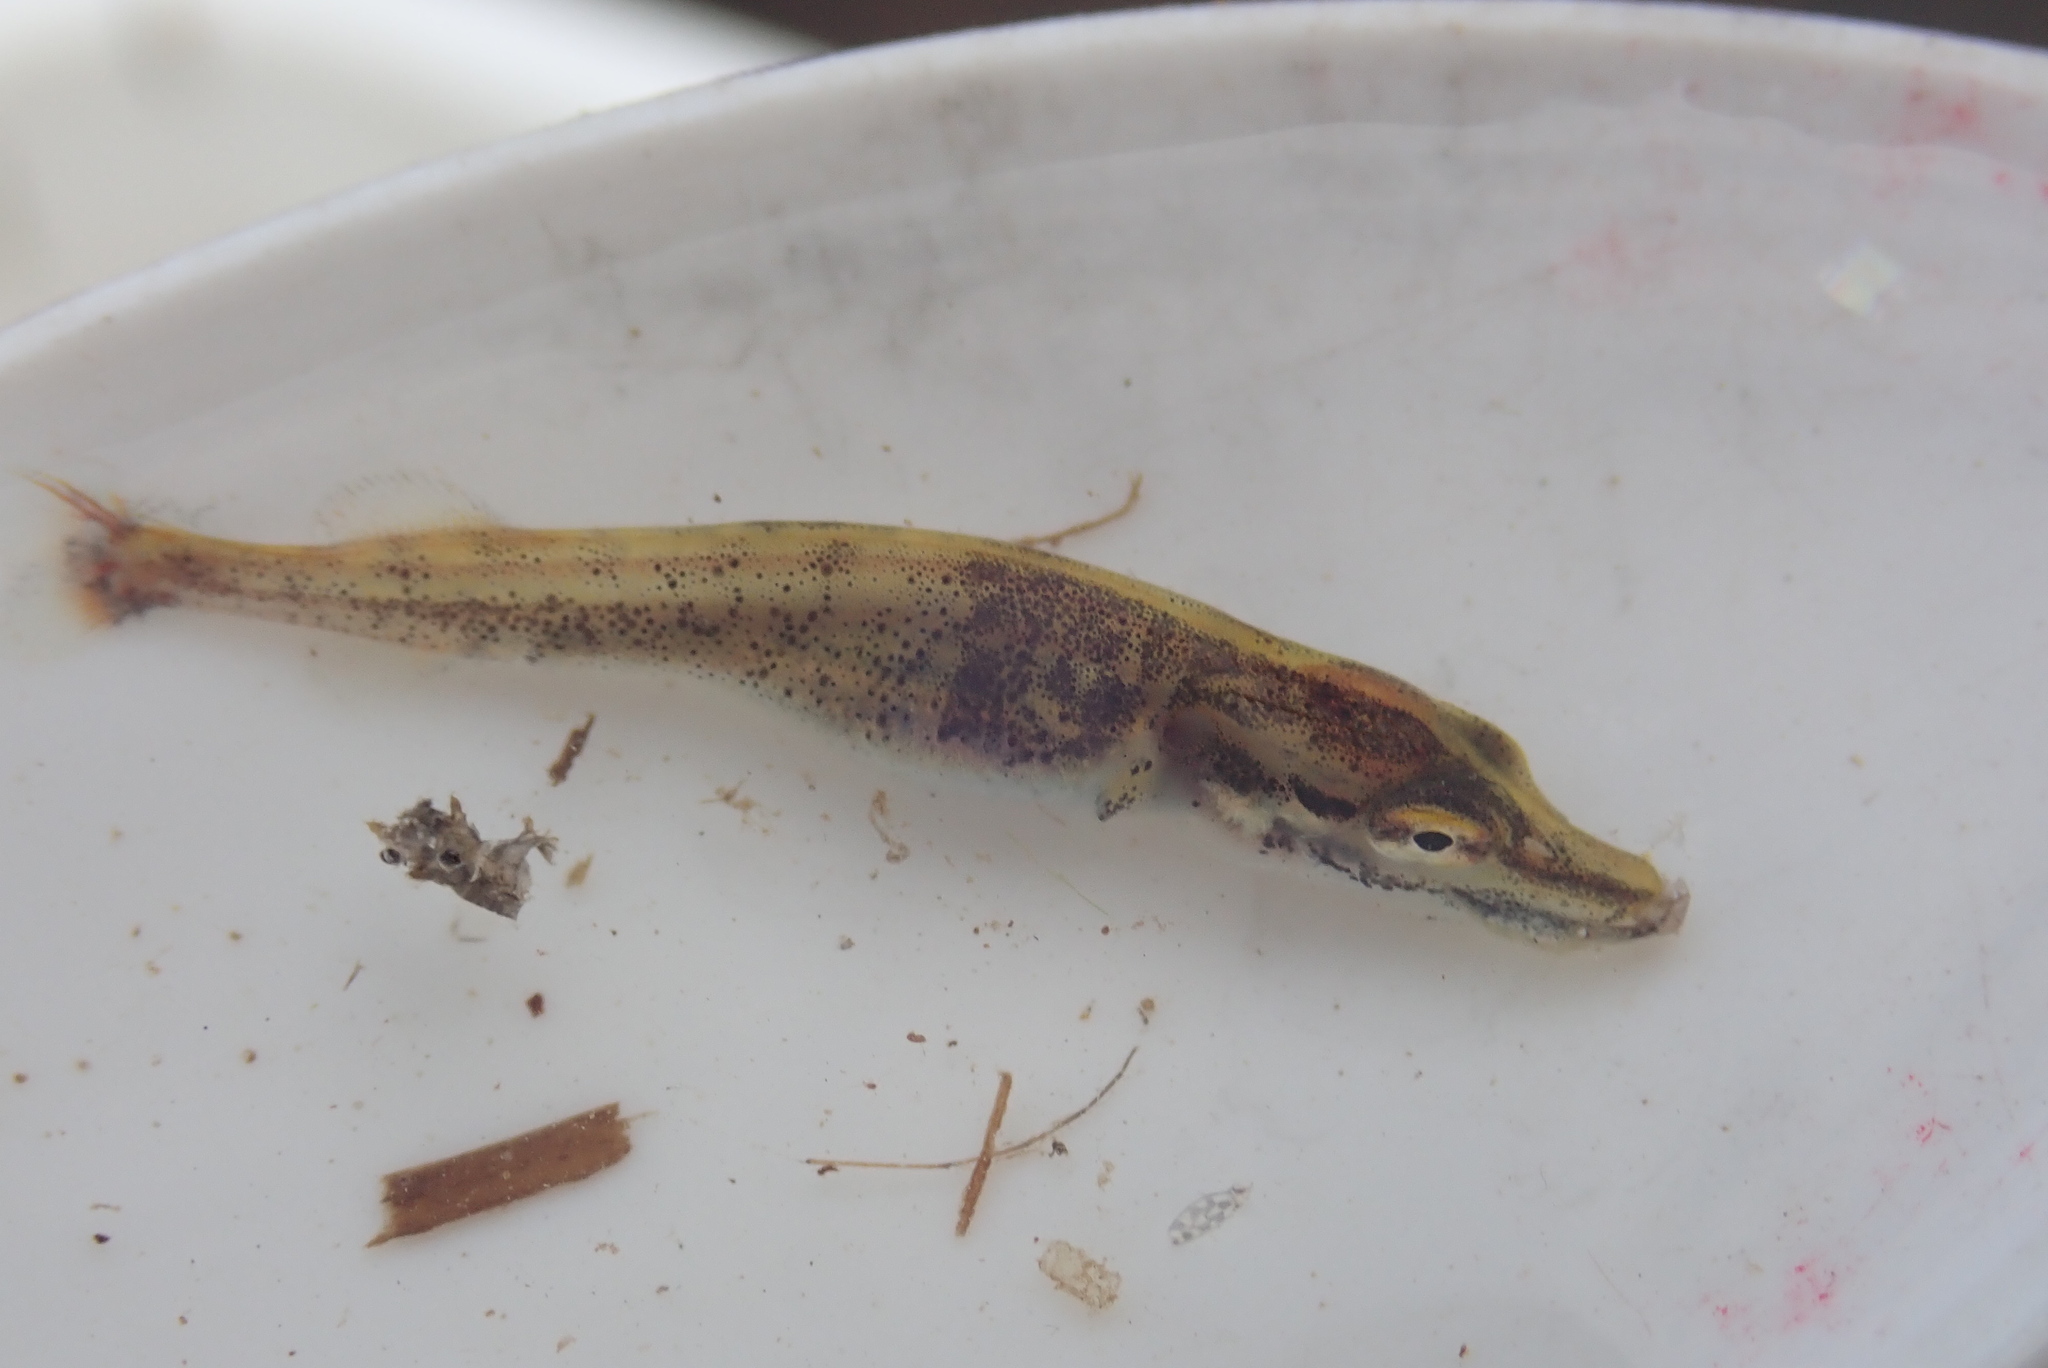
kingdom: Animalia
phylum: Chordata
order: Esociformes
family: Esocidae
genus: Esox
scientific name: Esox lucius
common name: Northern pike
